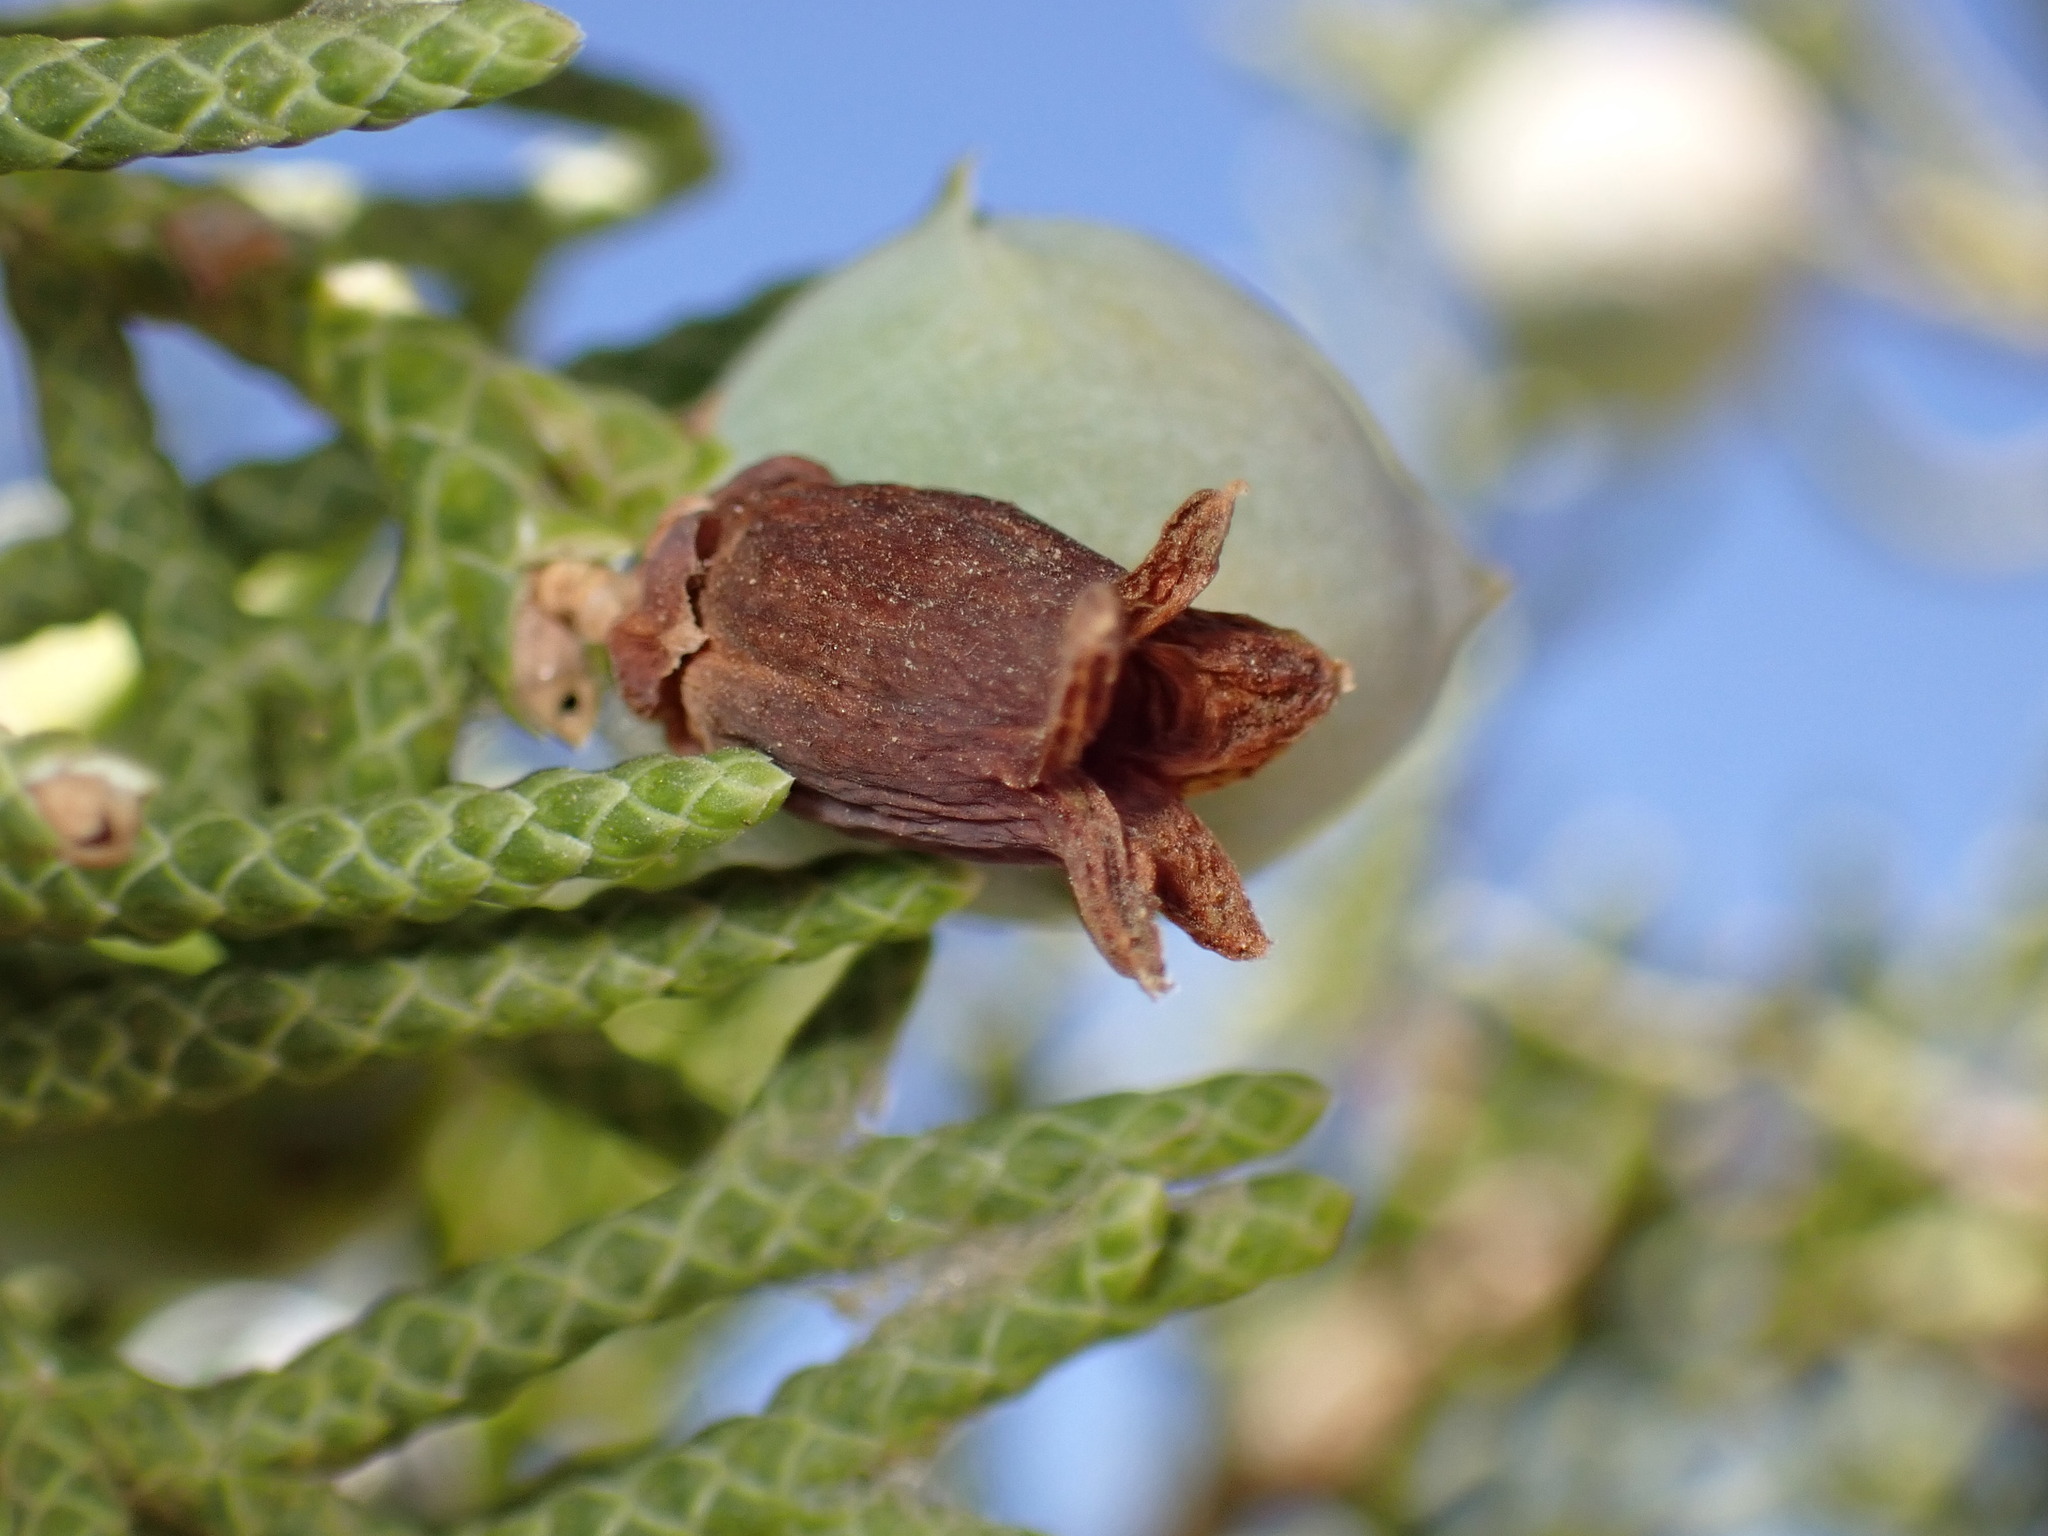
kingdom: Animalia
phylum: Arthropoda
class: Insecta
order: Diptera
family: Cecidomyiidae
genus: Walshomyia
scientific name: Walshomyia juniperina
